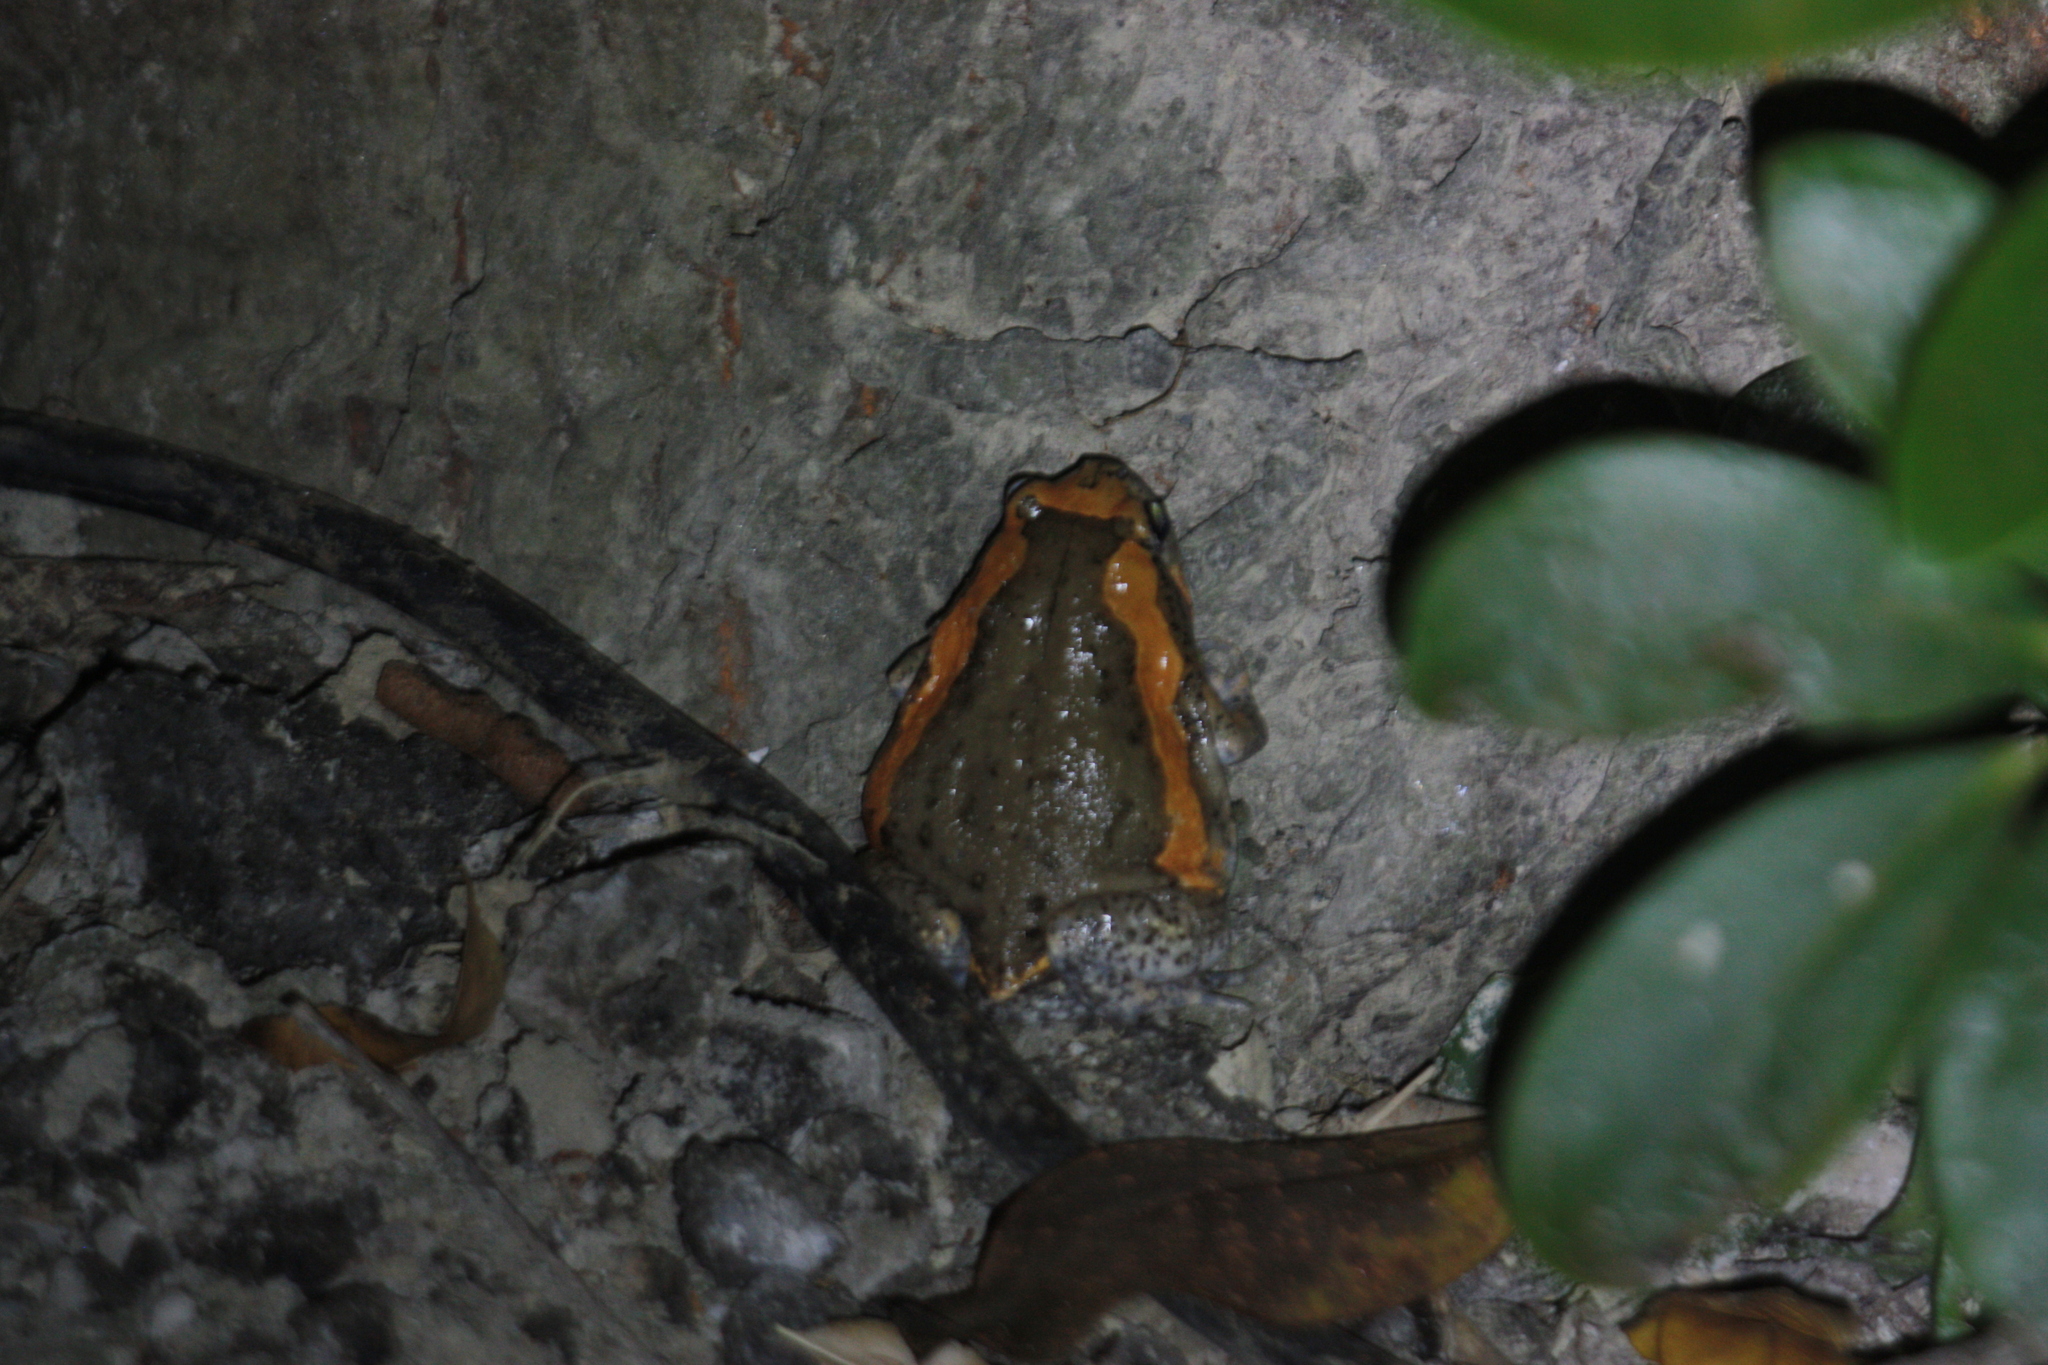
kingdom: Animalia
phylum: Chordata
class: Amphibia
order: Anura
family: Microhylidae
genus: Kaloula
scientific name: Kaloula pulchra
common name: Common,banded bullfrog
